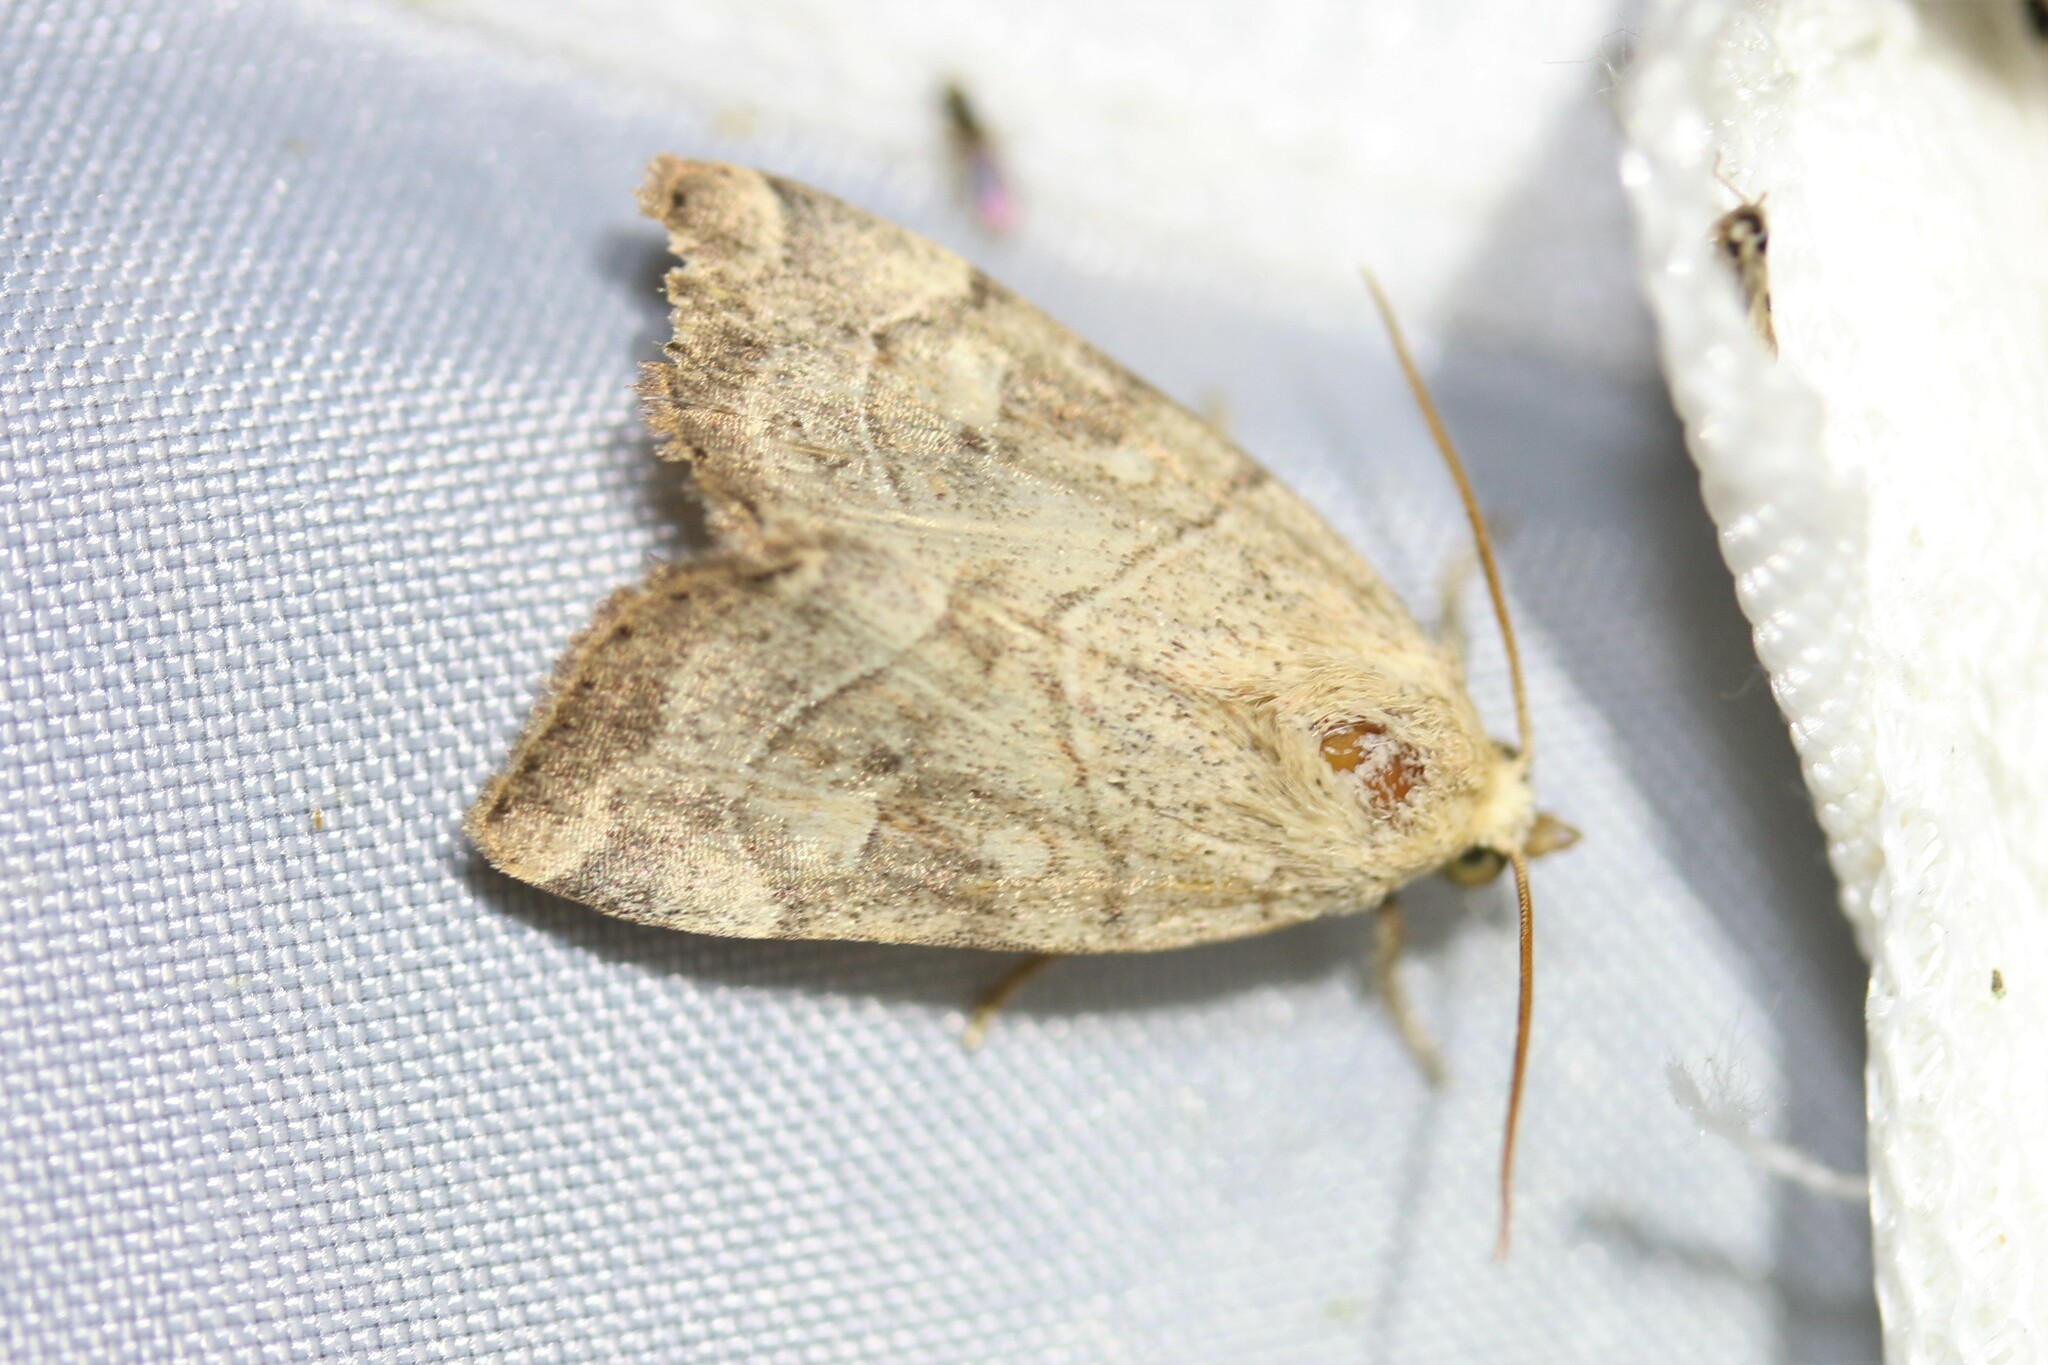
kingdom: Animalia
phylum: Arthropoda
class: Insecta
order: Lepidoptera
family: Noctuidae
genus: Cosmia
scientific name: Cosmia trapezina
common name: Dun-bar
